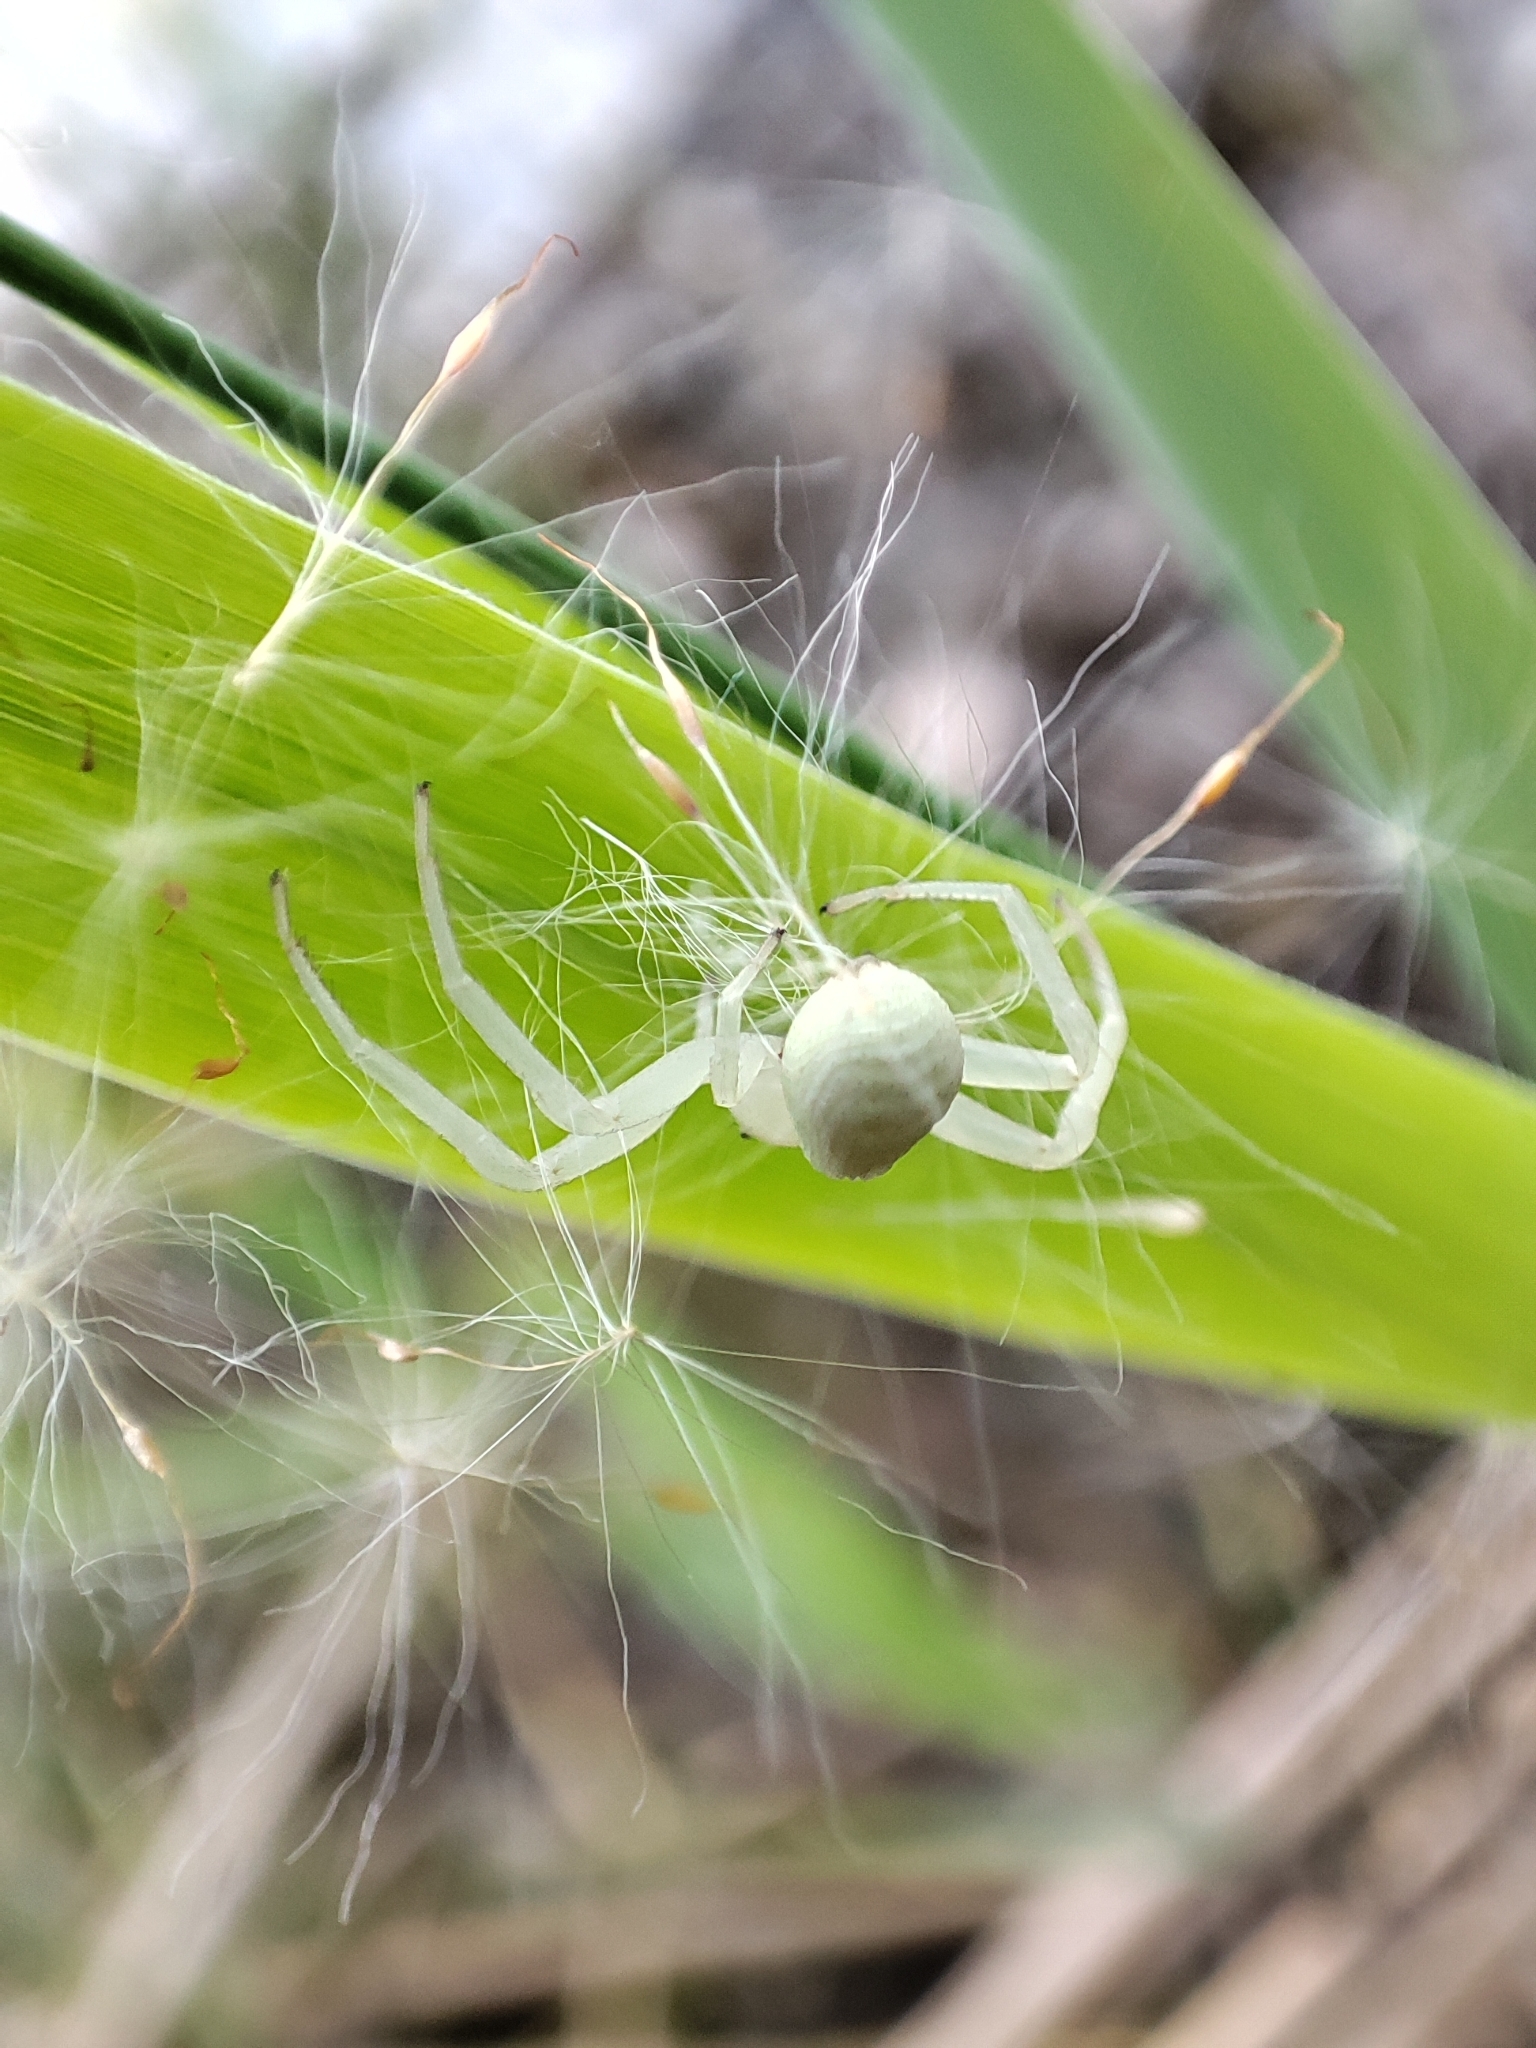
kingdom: Animalia
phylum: Arthropoda
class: Arachnida
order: Araneae
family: Thomisidae
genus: Misumena
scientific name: Misumena vatia
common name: Goldenrod crab spider
